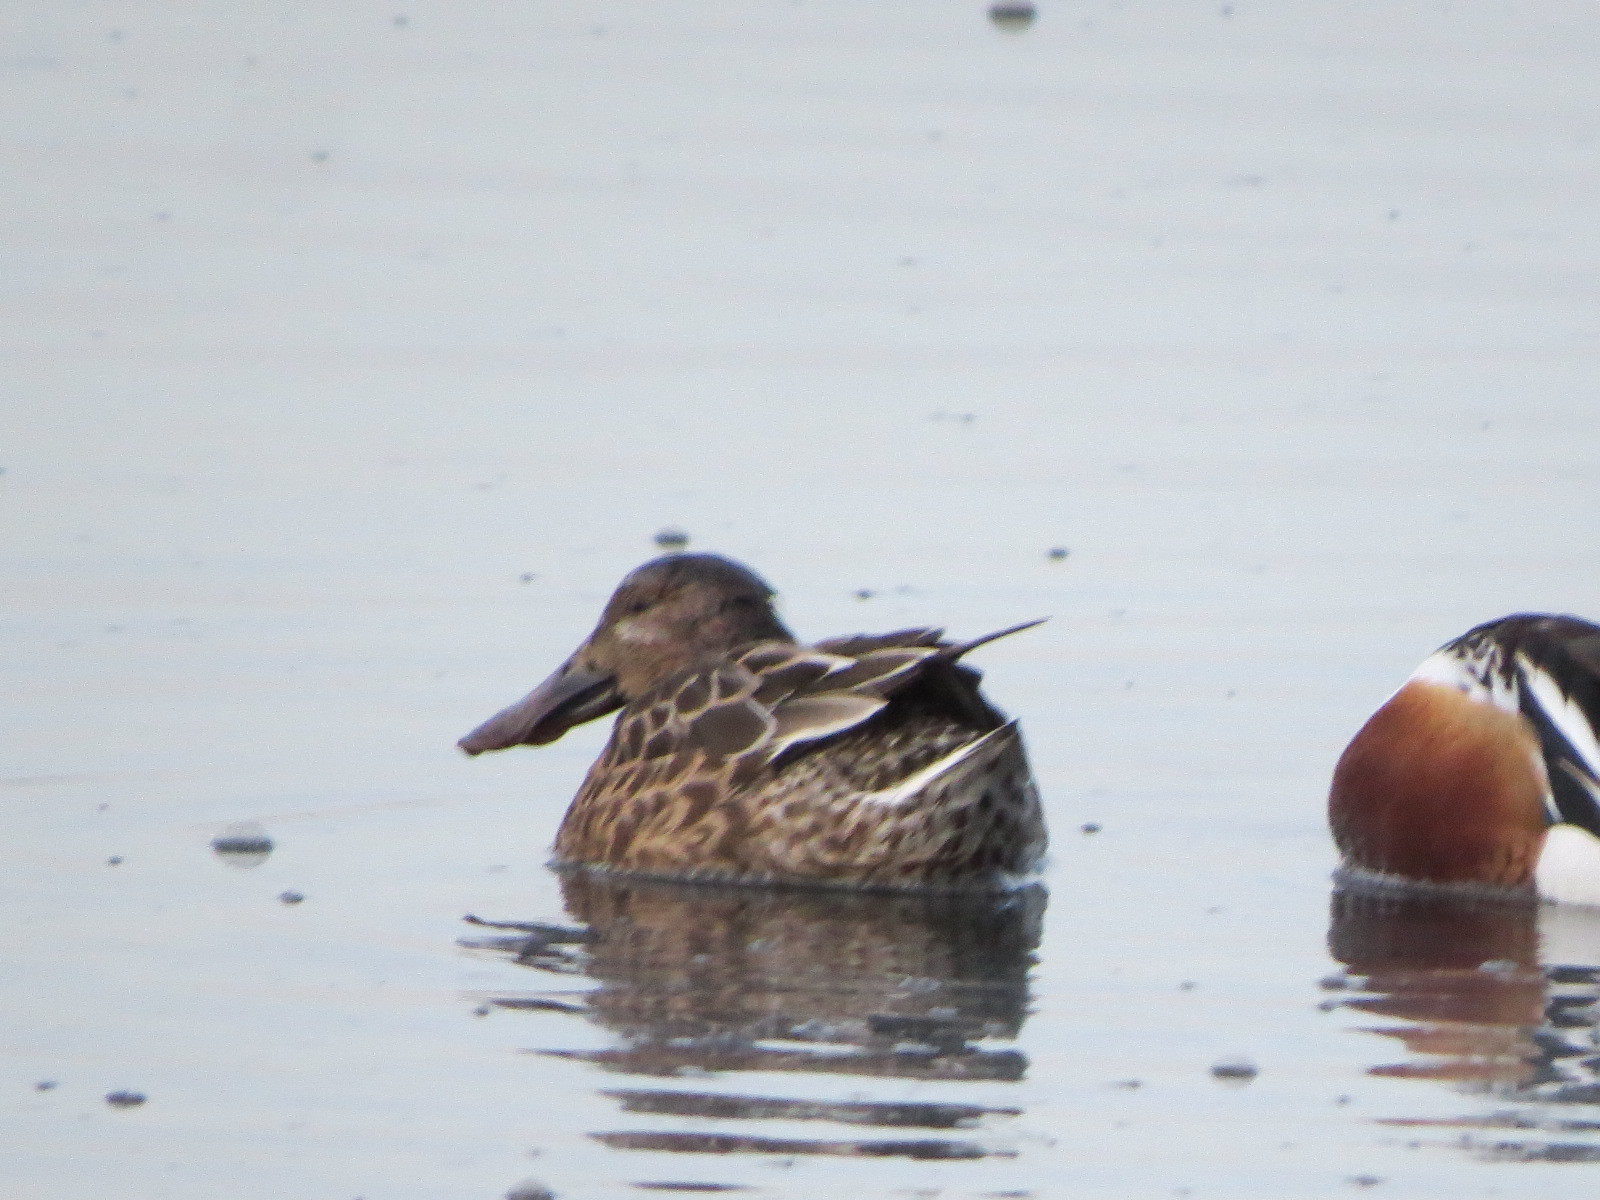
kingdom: Animalia
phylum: Chordata
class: Aves
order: Anseriformes
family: Anatidae
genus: Spatula
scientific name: Spatula clypeata
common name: Northern shoveler
